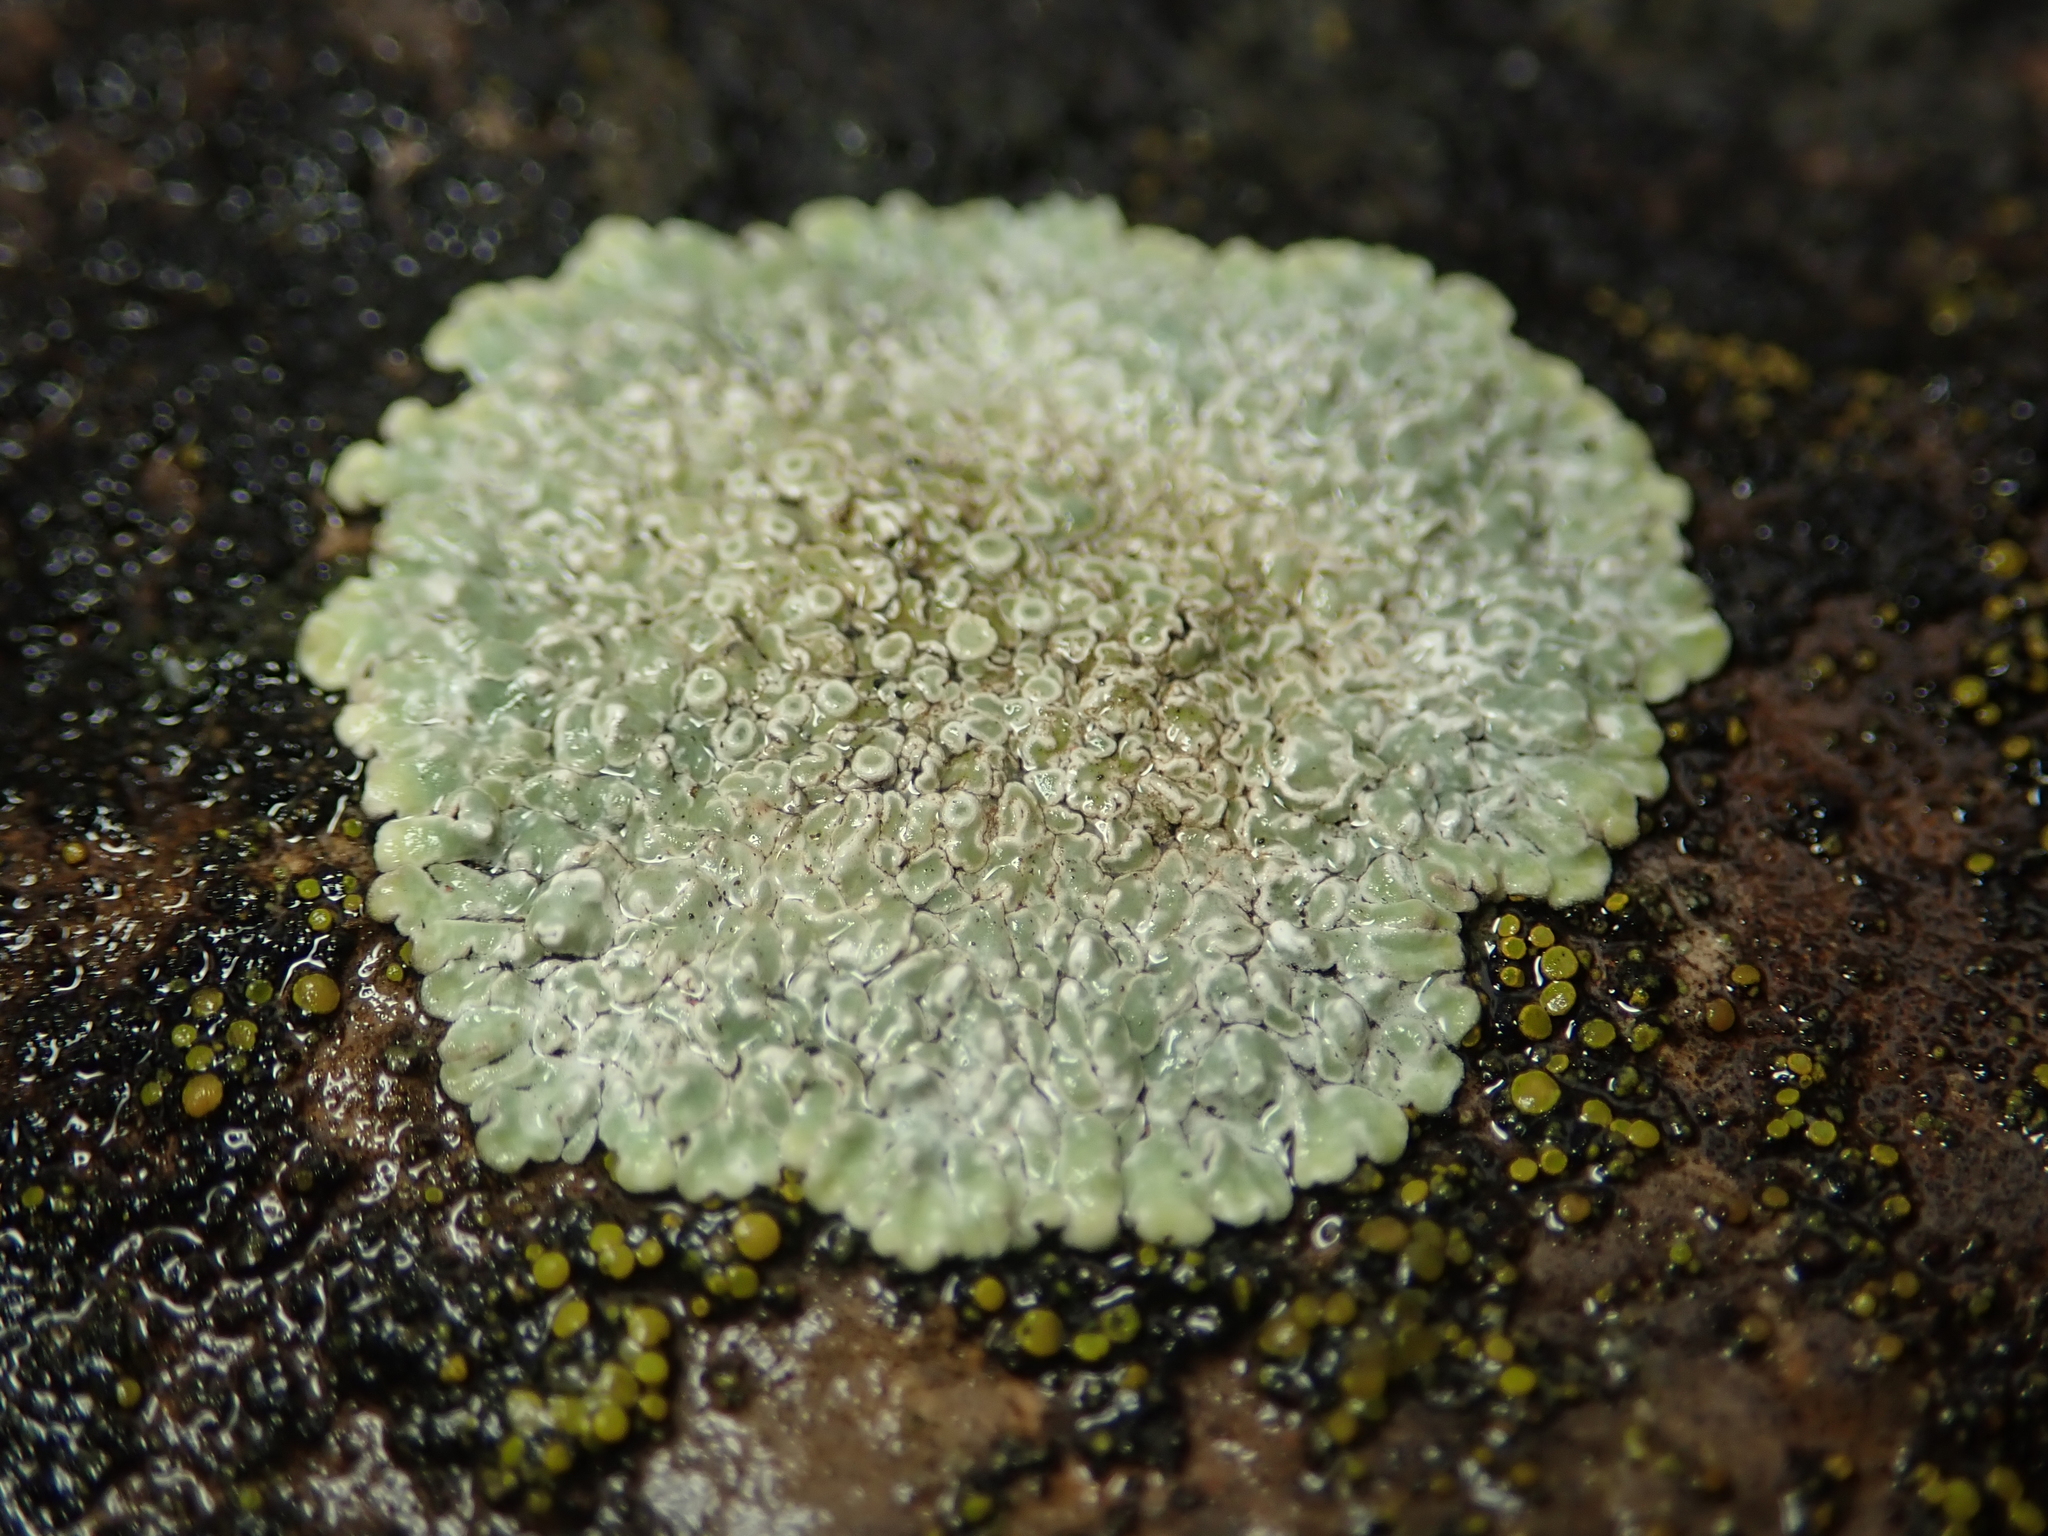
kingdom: Fungi
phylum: Ascomycota
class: Lecanoromycetes
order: Lecanorales
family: Lecanoraceae
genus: Protoparmeliopsis
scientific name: Protoparmeliopsis muralis
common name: Stonewall rim lichen
